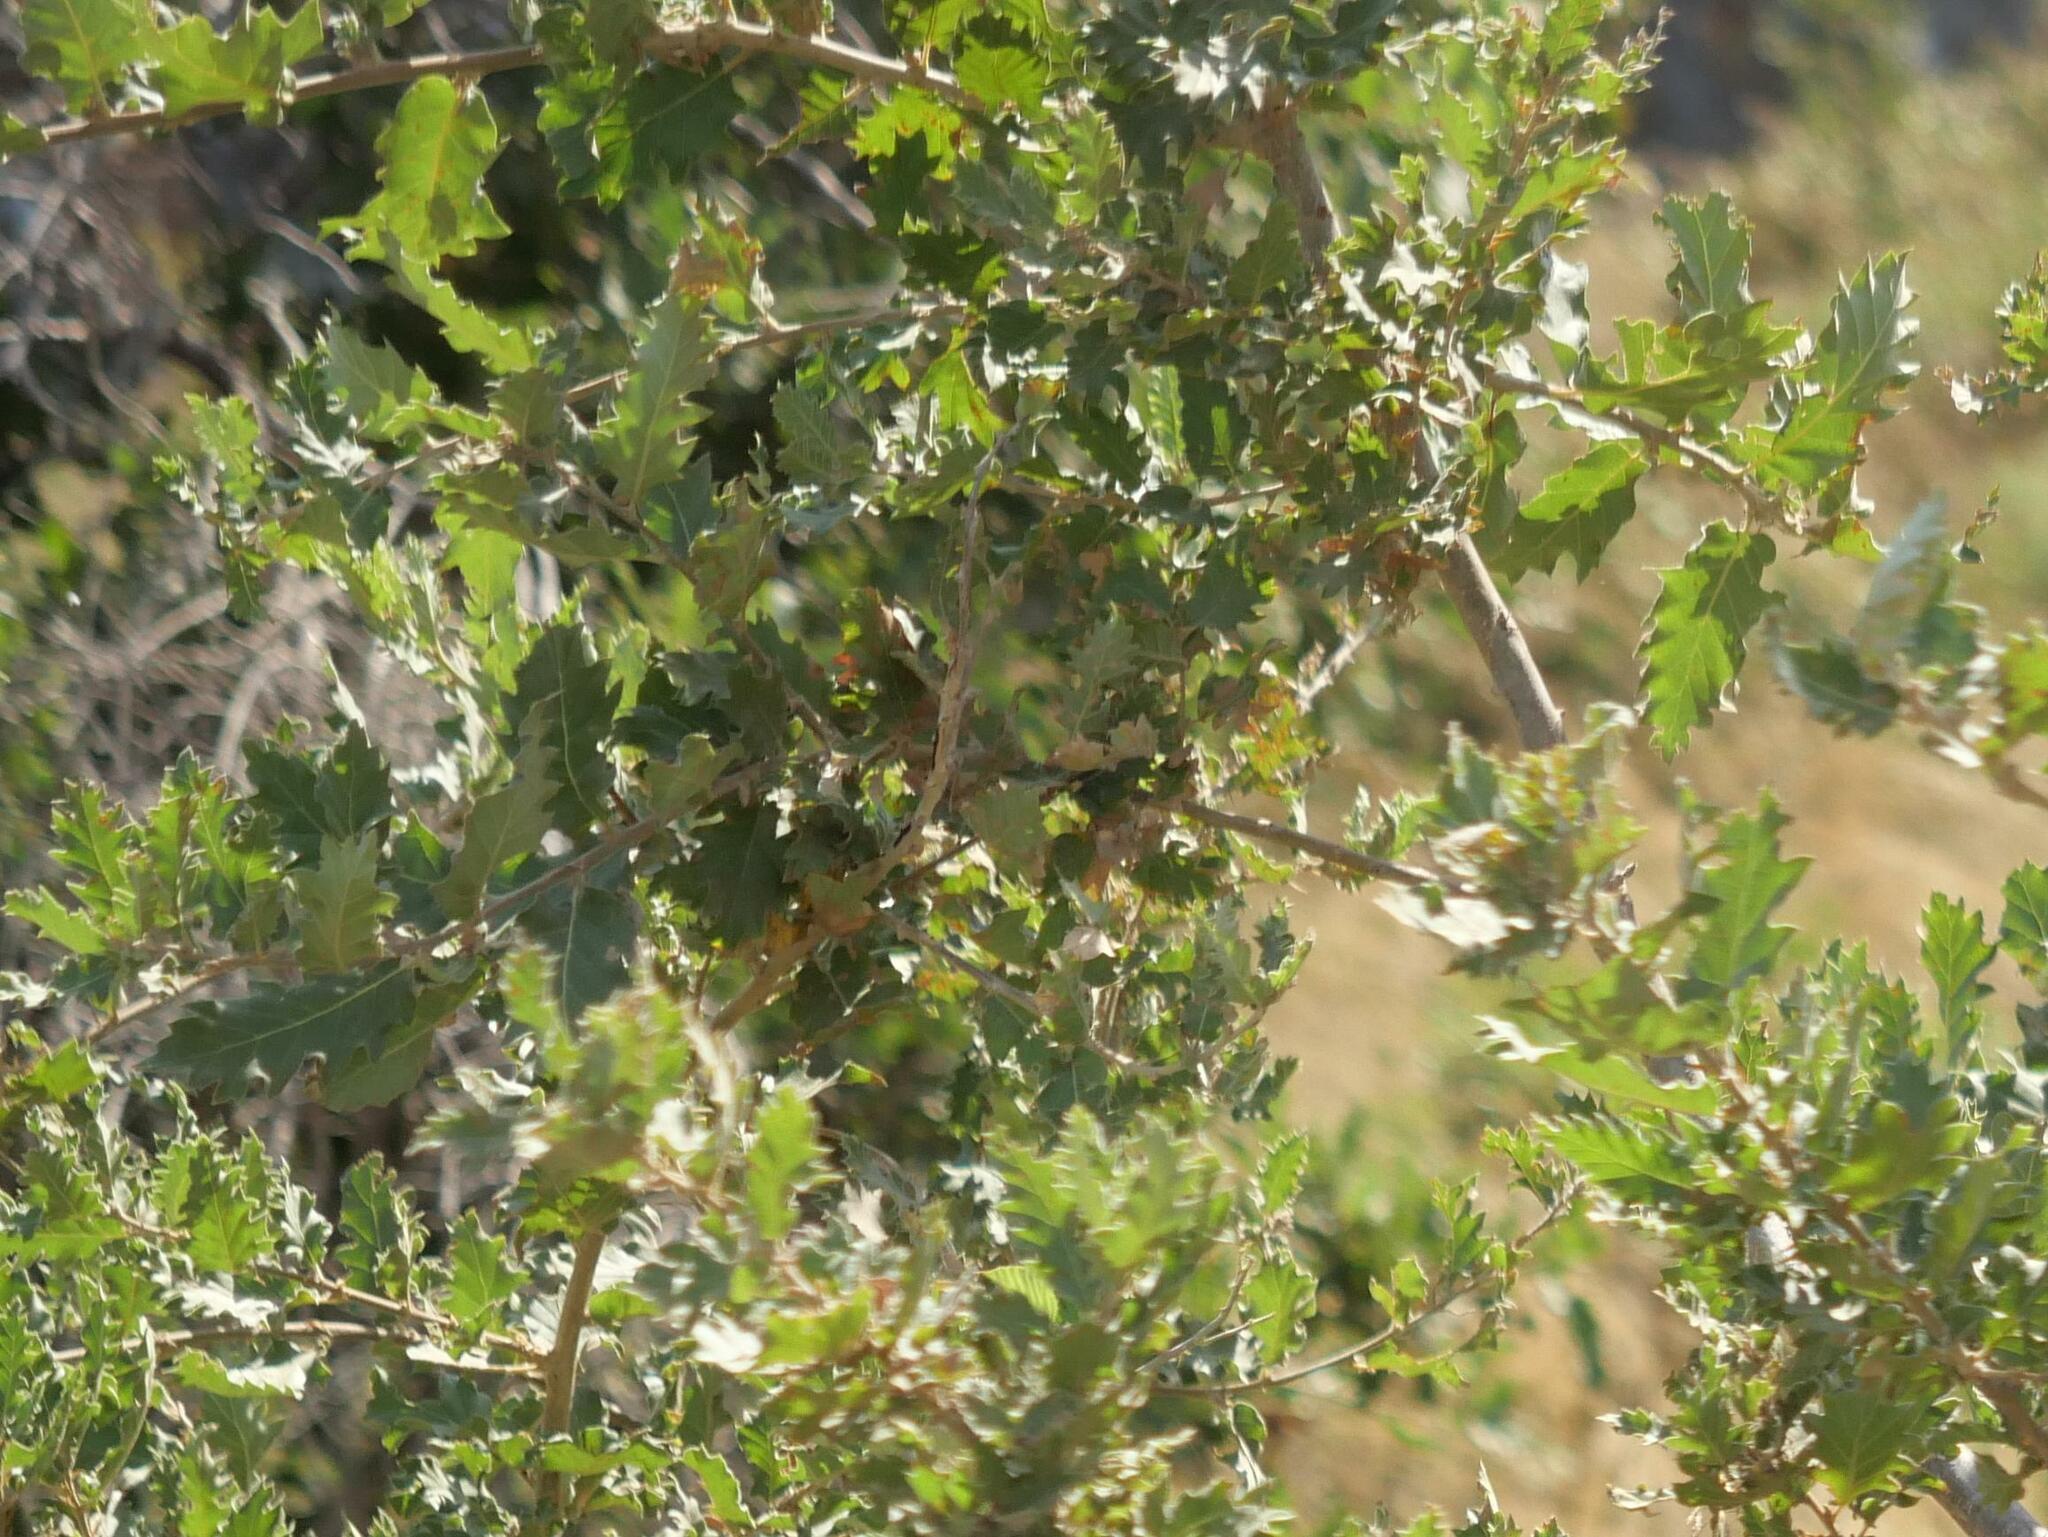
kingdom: Plantae
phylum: Tracheophyta
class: Magnoliopsida
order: Fagales
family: Fagaceae
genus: Quercus
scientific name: Quercus ithaburensis
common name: Tabor oak
